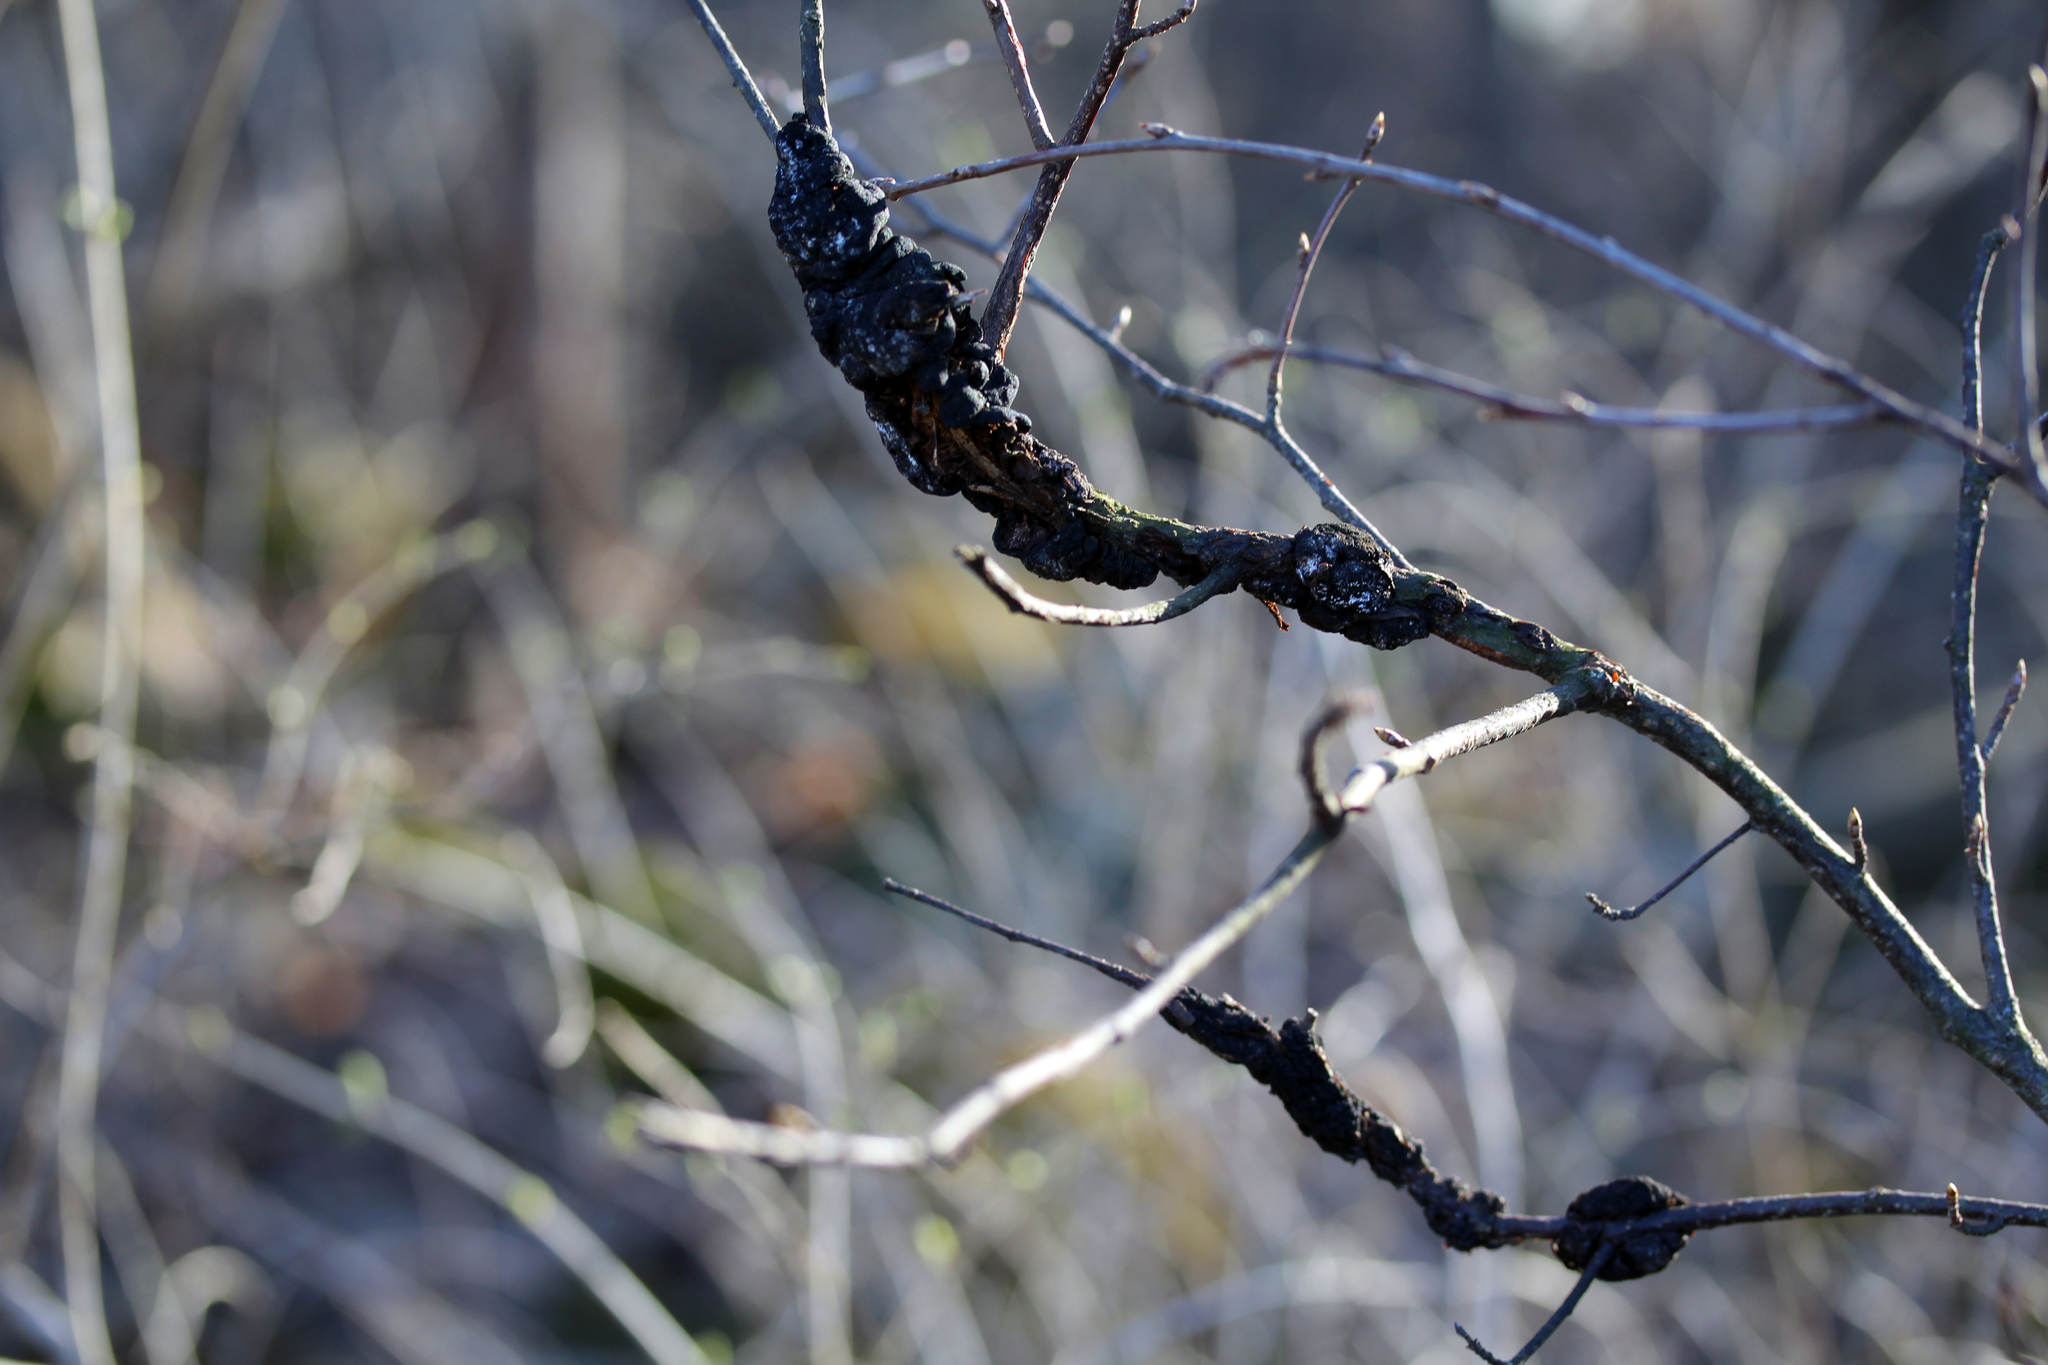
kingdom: Fungi
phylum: Ascomycota
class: Dothideomycetes
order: Venturiales
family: Venturiaceae
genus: Apiosporina
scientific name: Apiosporina morbosa
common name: Black knot
